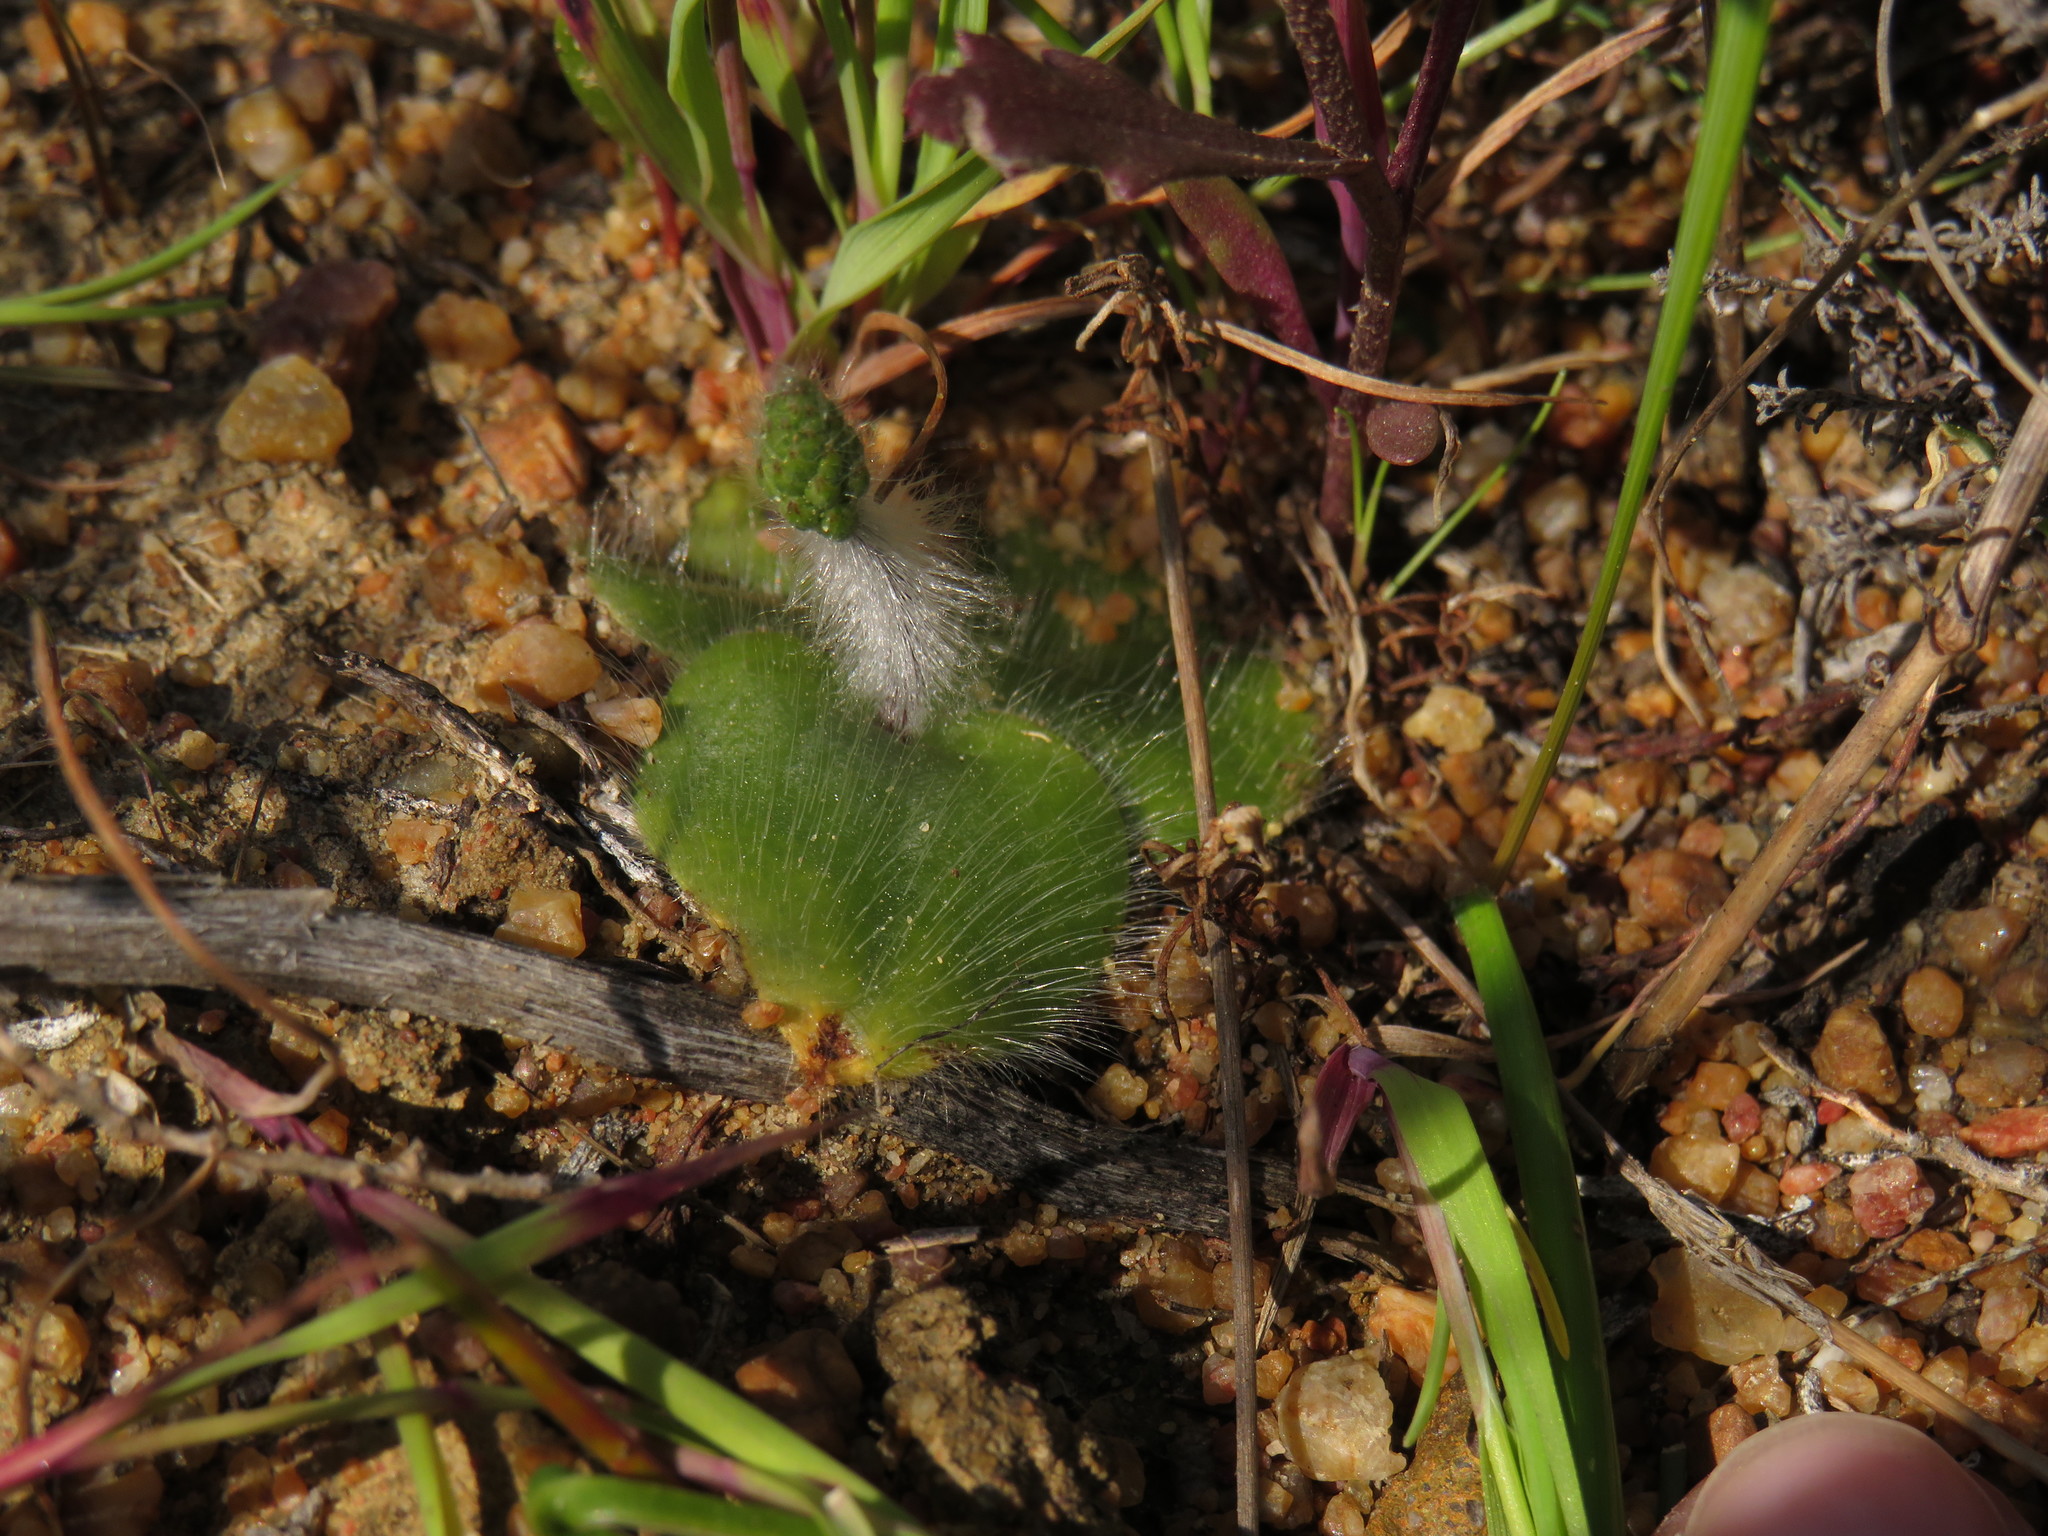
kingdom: Plantae
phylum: Tracheophyta
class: Liliopsida
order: Asparagales
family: Orchidaceae
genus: Holothrix
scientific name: Holothrix villosa
